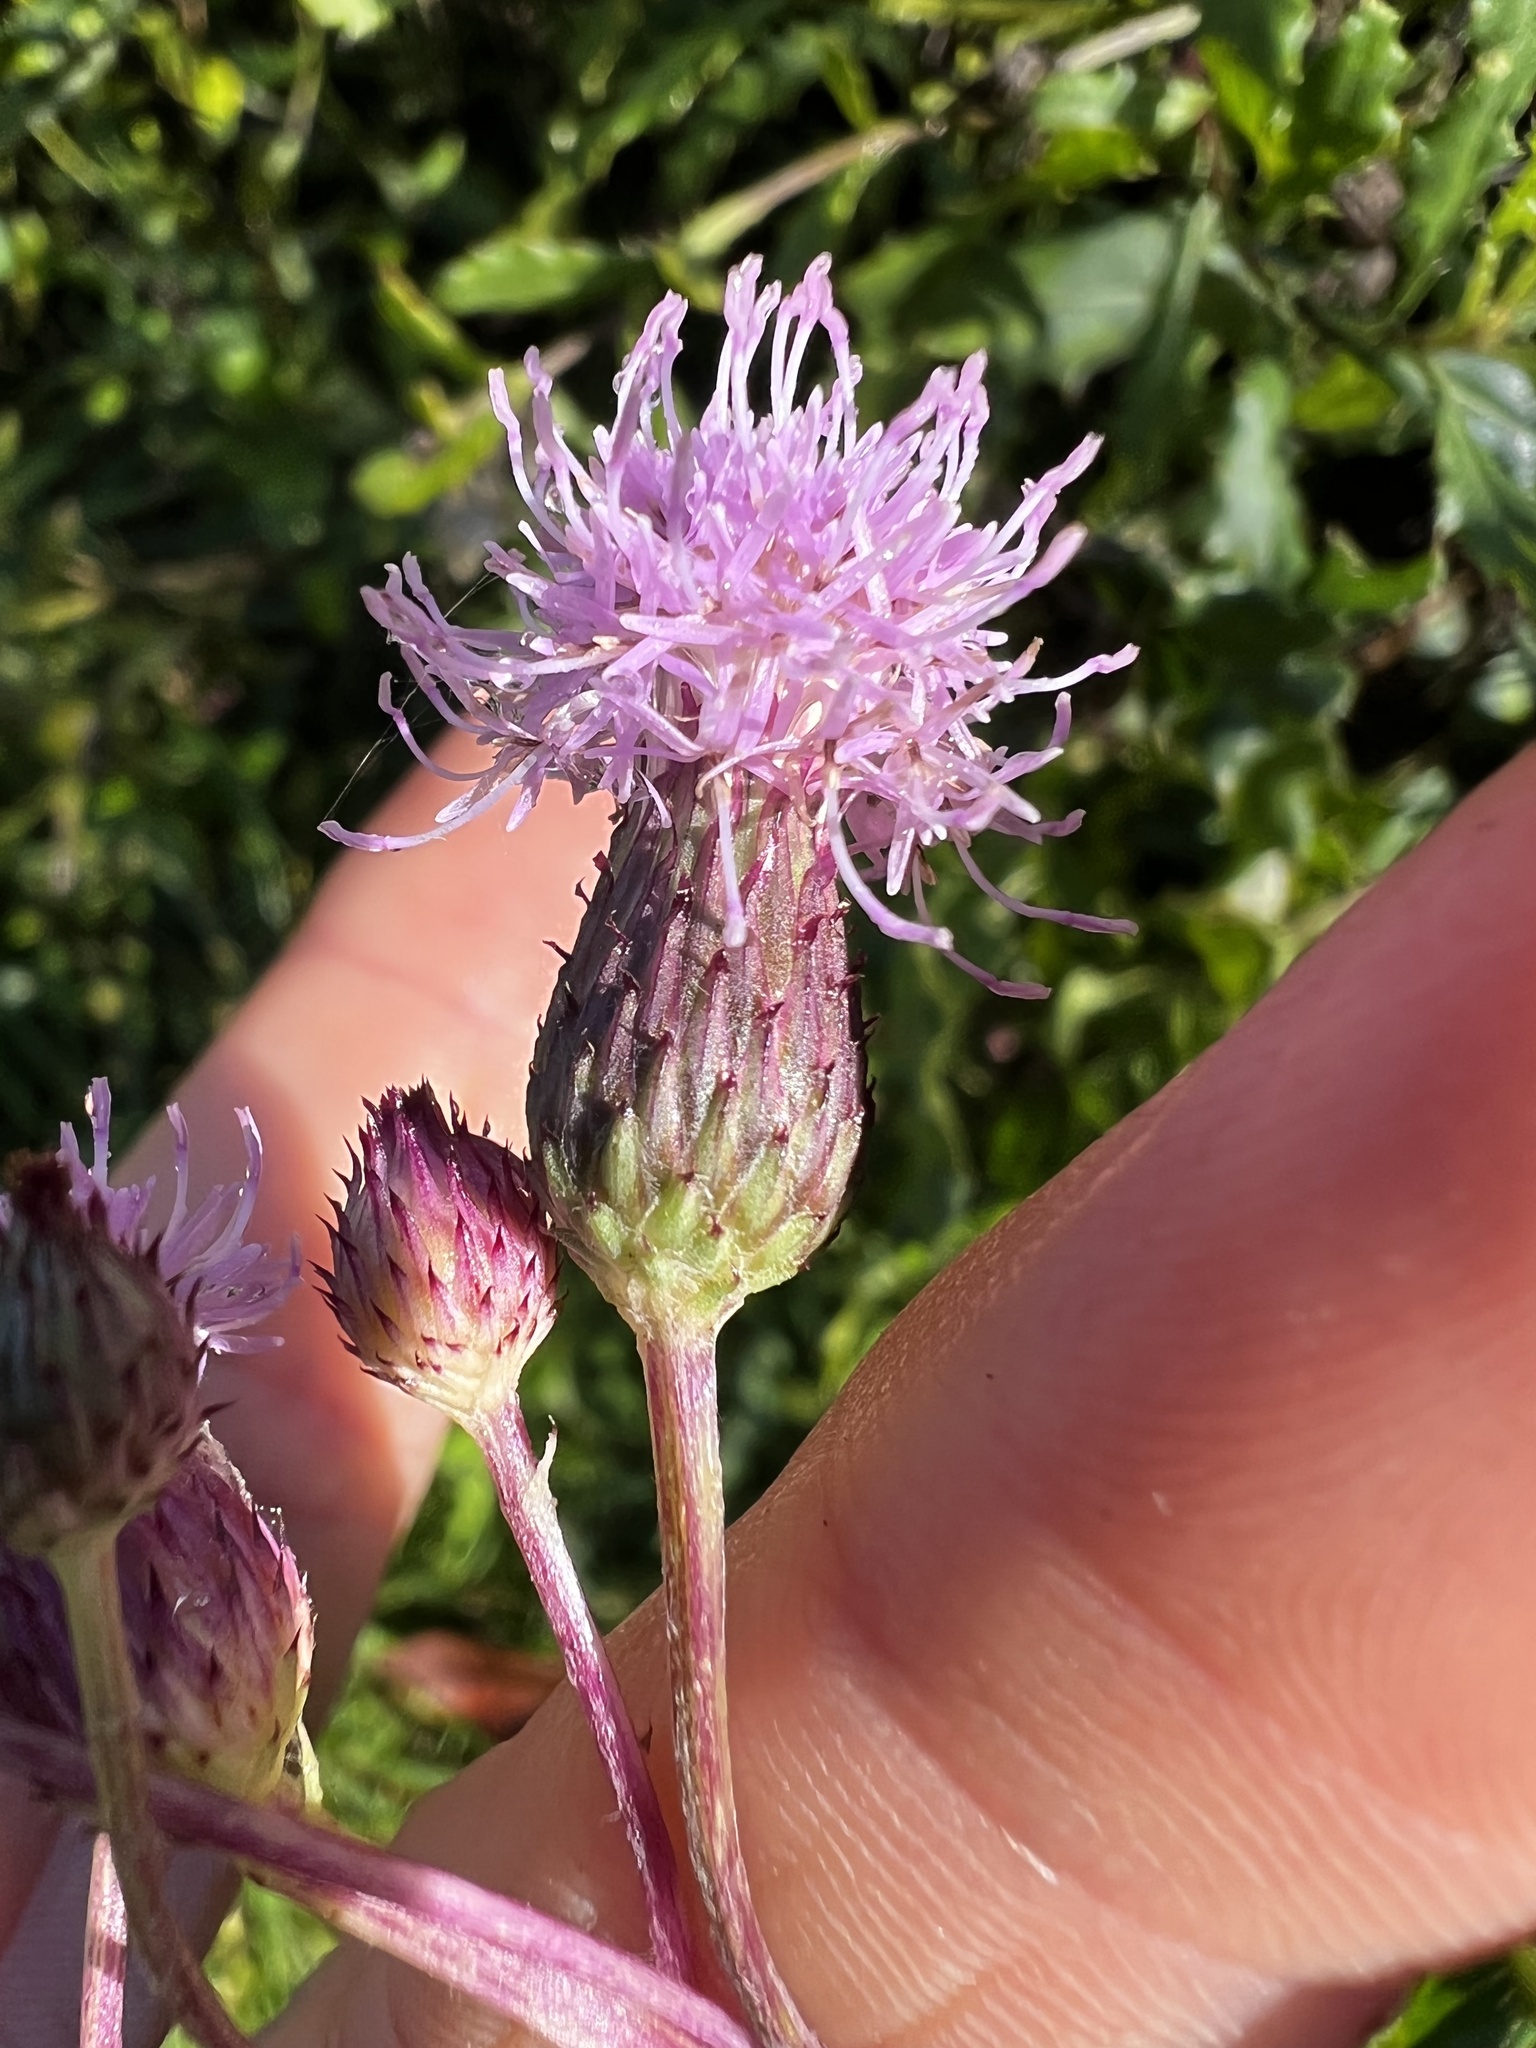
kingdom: Plantae
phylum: Tracheophyta
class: Magnoliopsida
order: Asterales
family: Asteraceae
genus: Cirsium
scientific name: Cirsium arvense
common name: Creeping thistle
